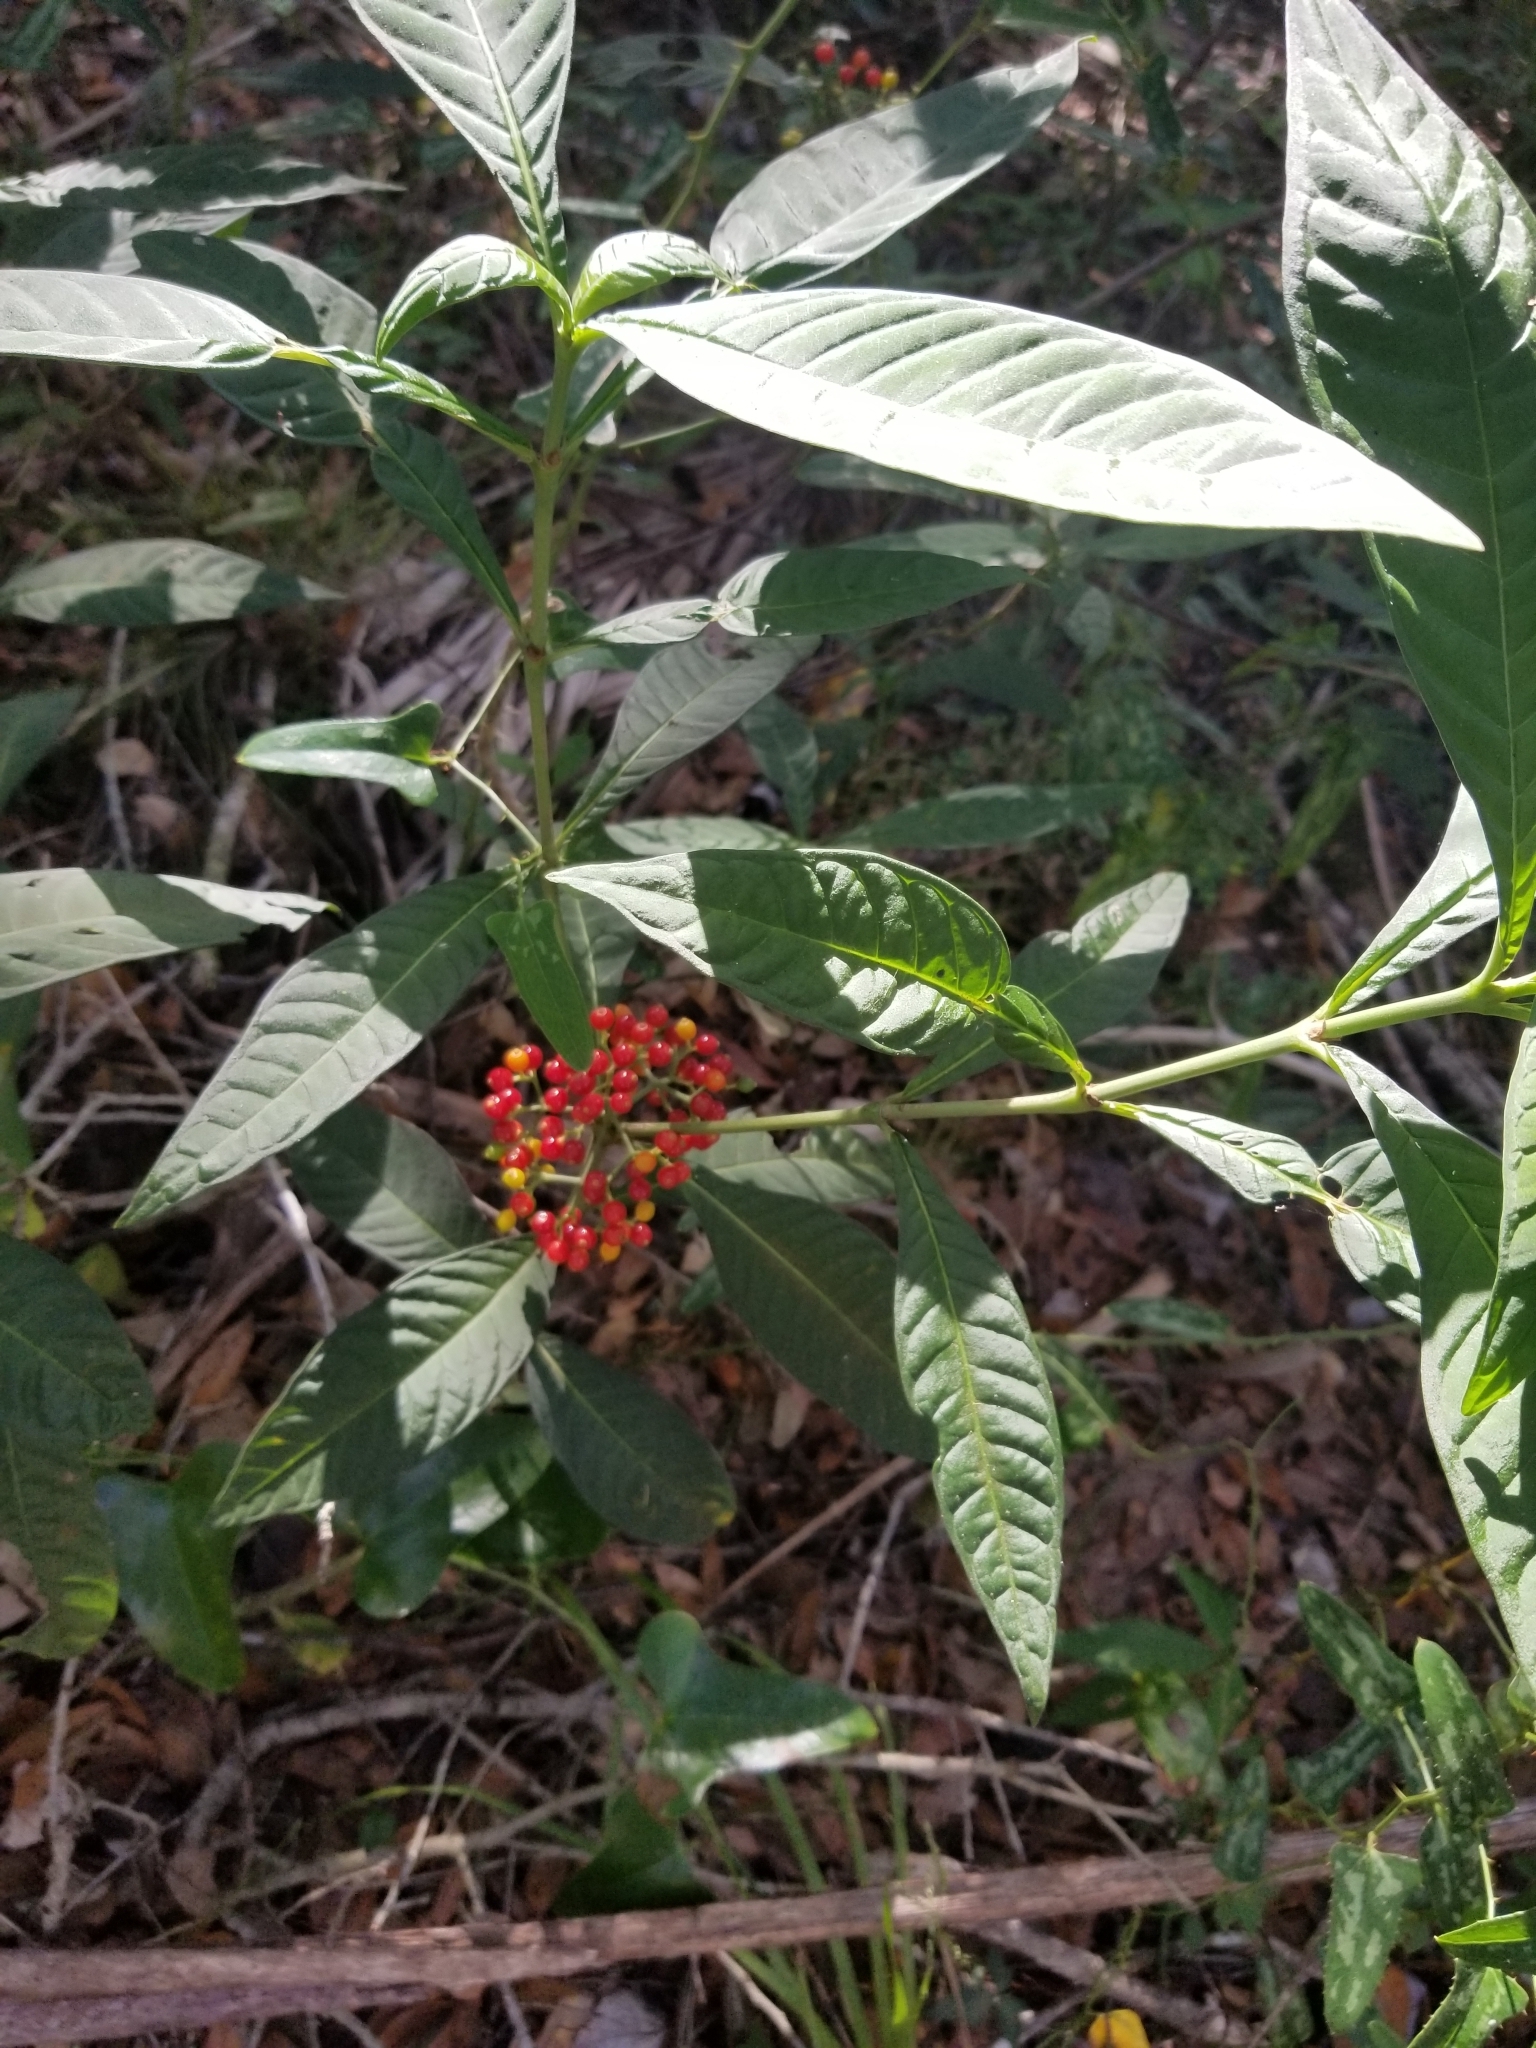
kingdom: Plantae
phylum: Tracheophyta
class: Magnoliopsida
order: Gentianales
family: Rubiaceae
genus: Psychotria
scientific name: Psychotria tenuifolia
